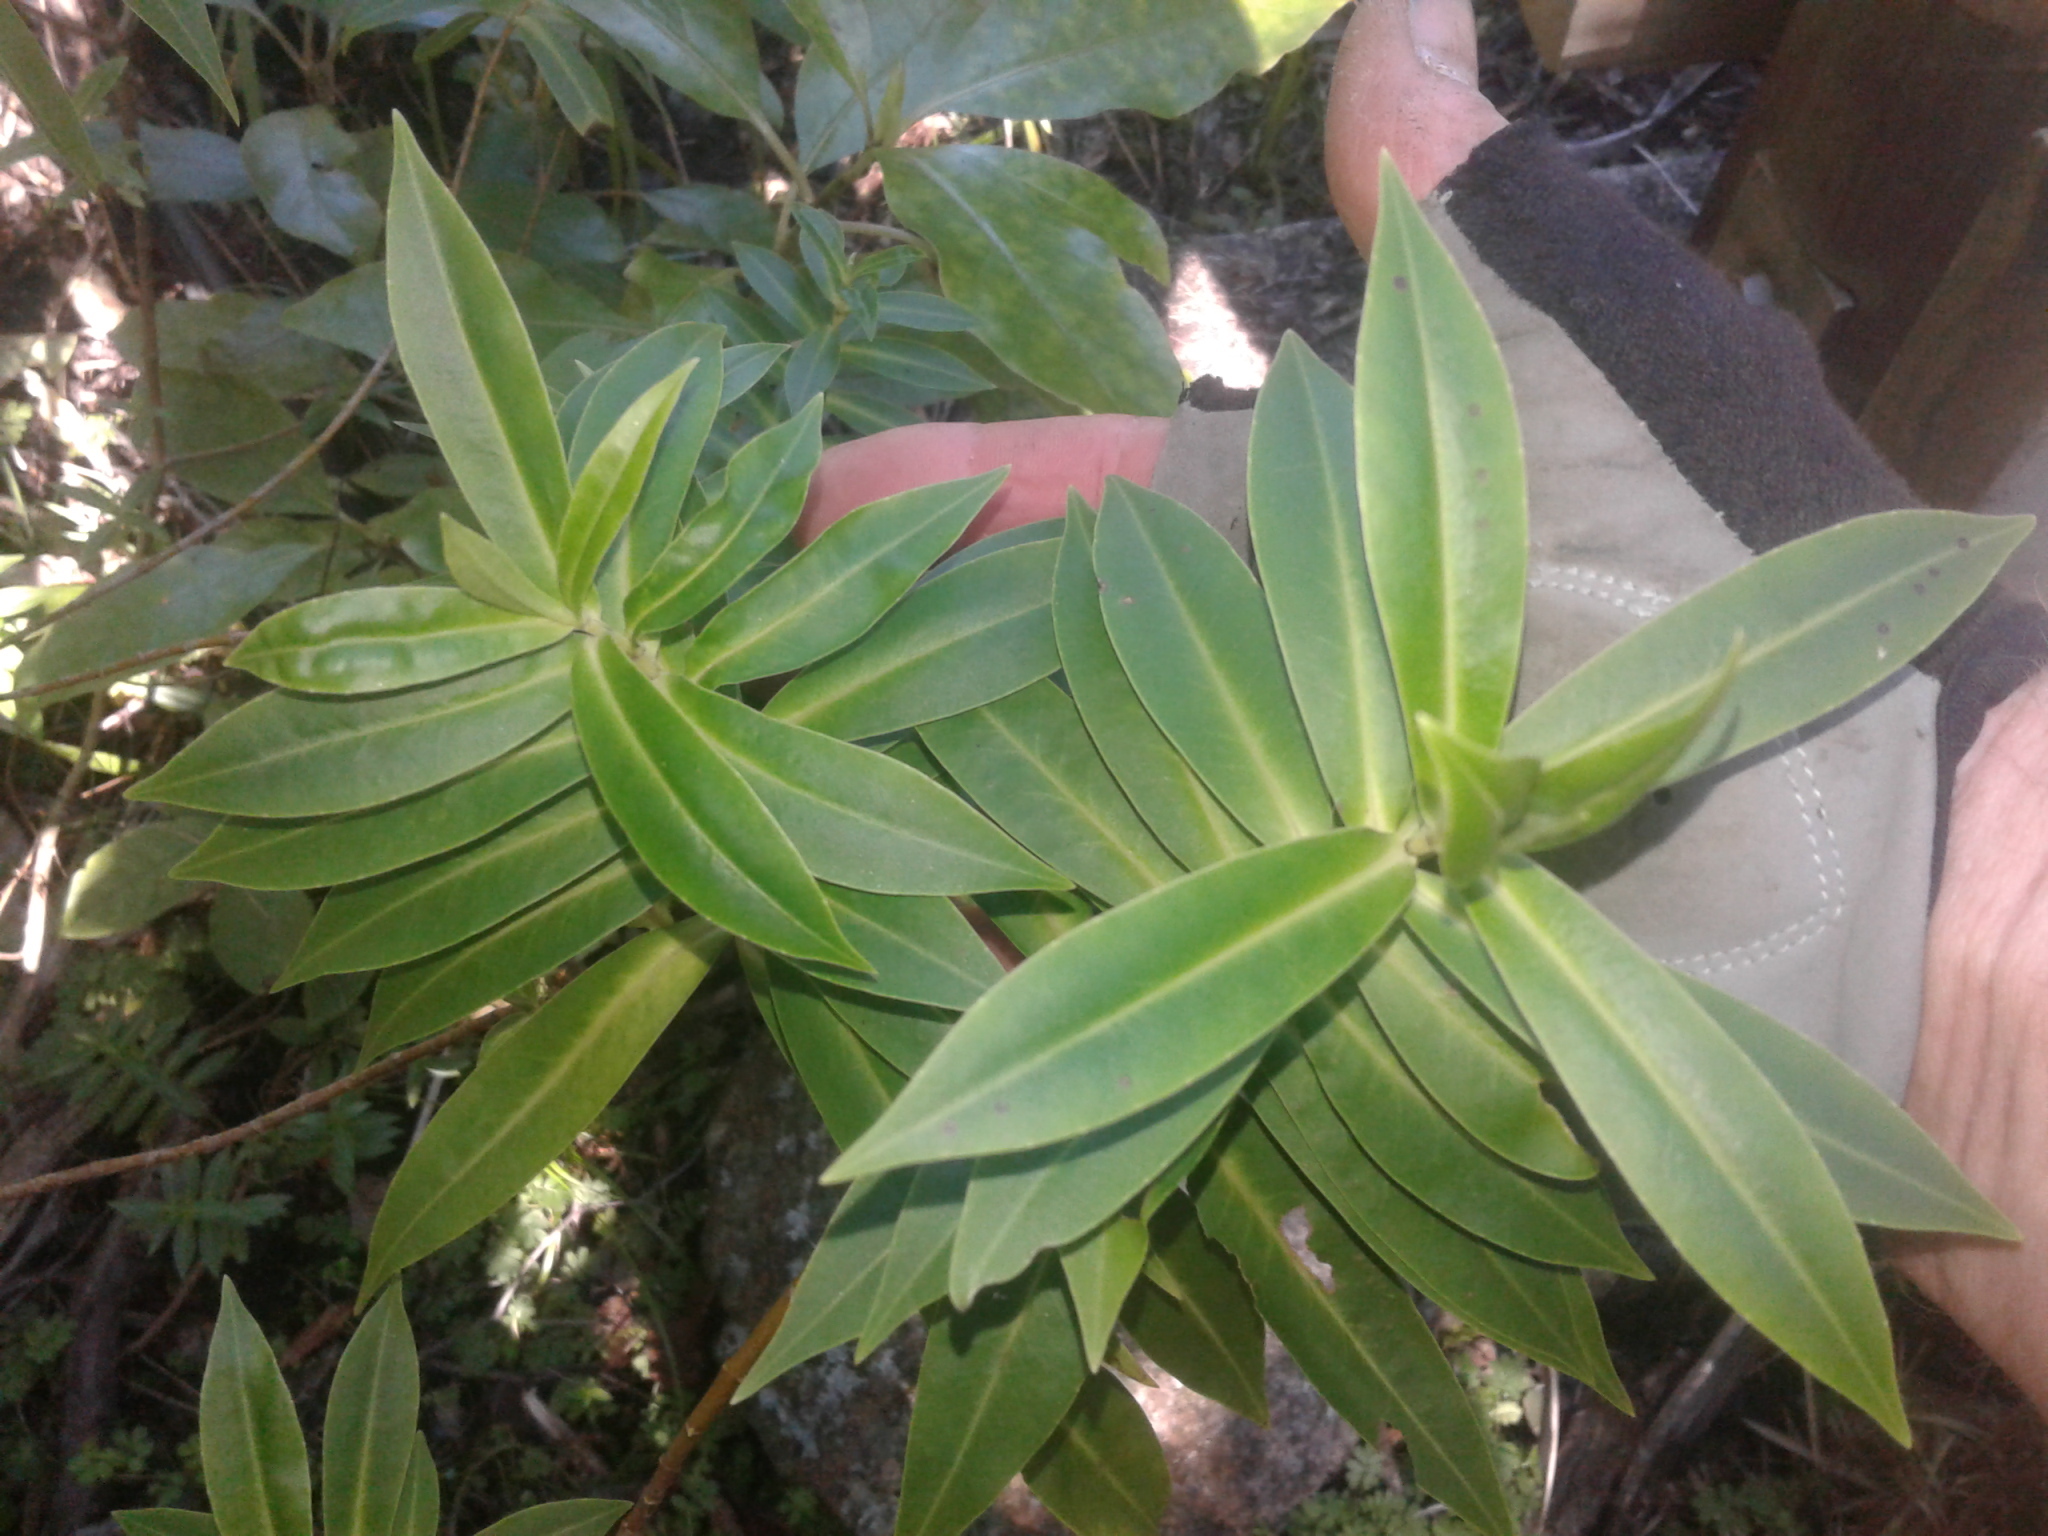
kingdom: Plantae
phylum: Tracheophyta
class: Magnoliopsida
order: Lamiales
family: Plantaginaceae
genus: Veronica
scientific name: Veronica salicifolia
